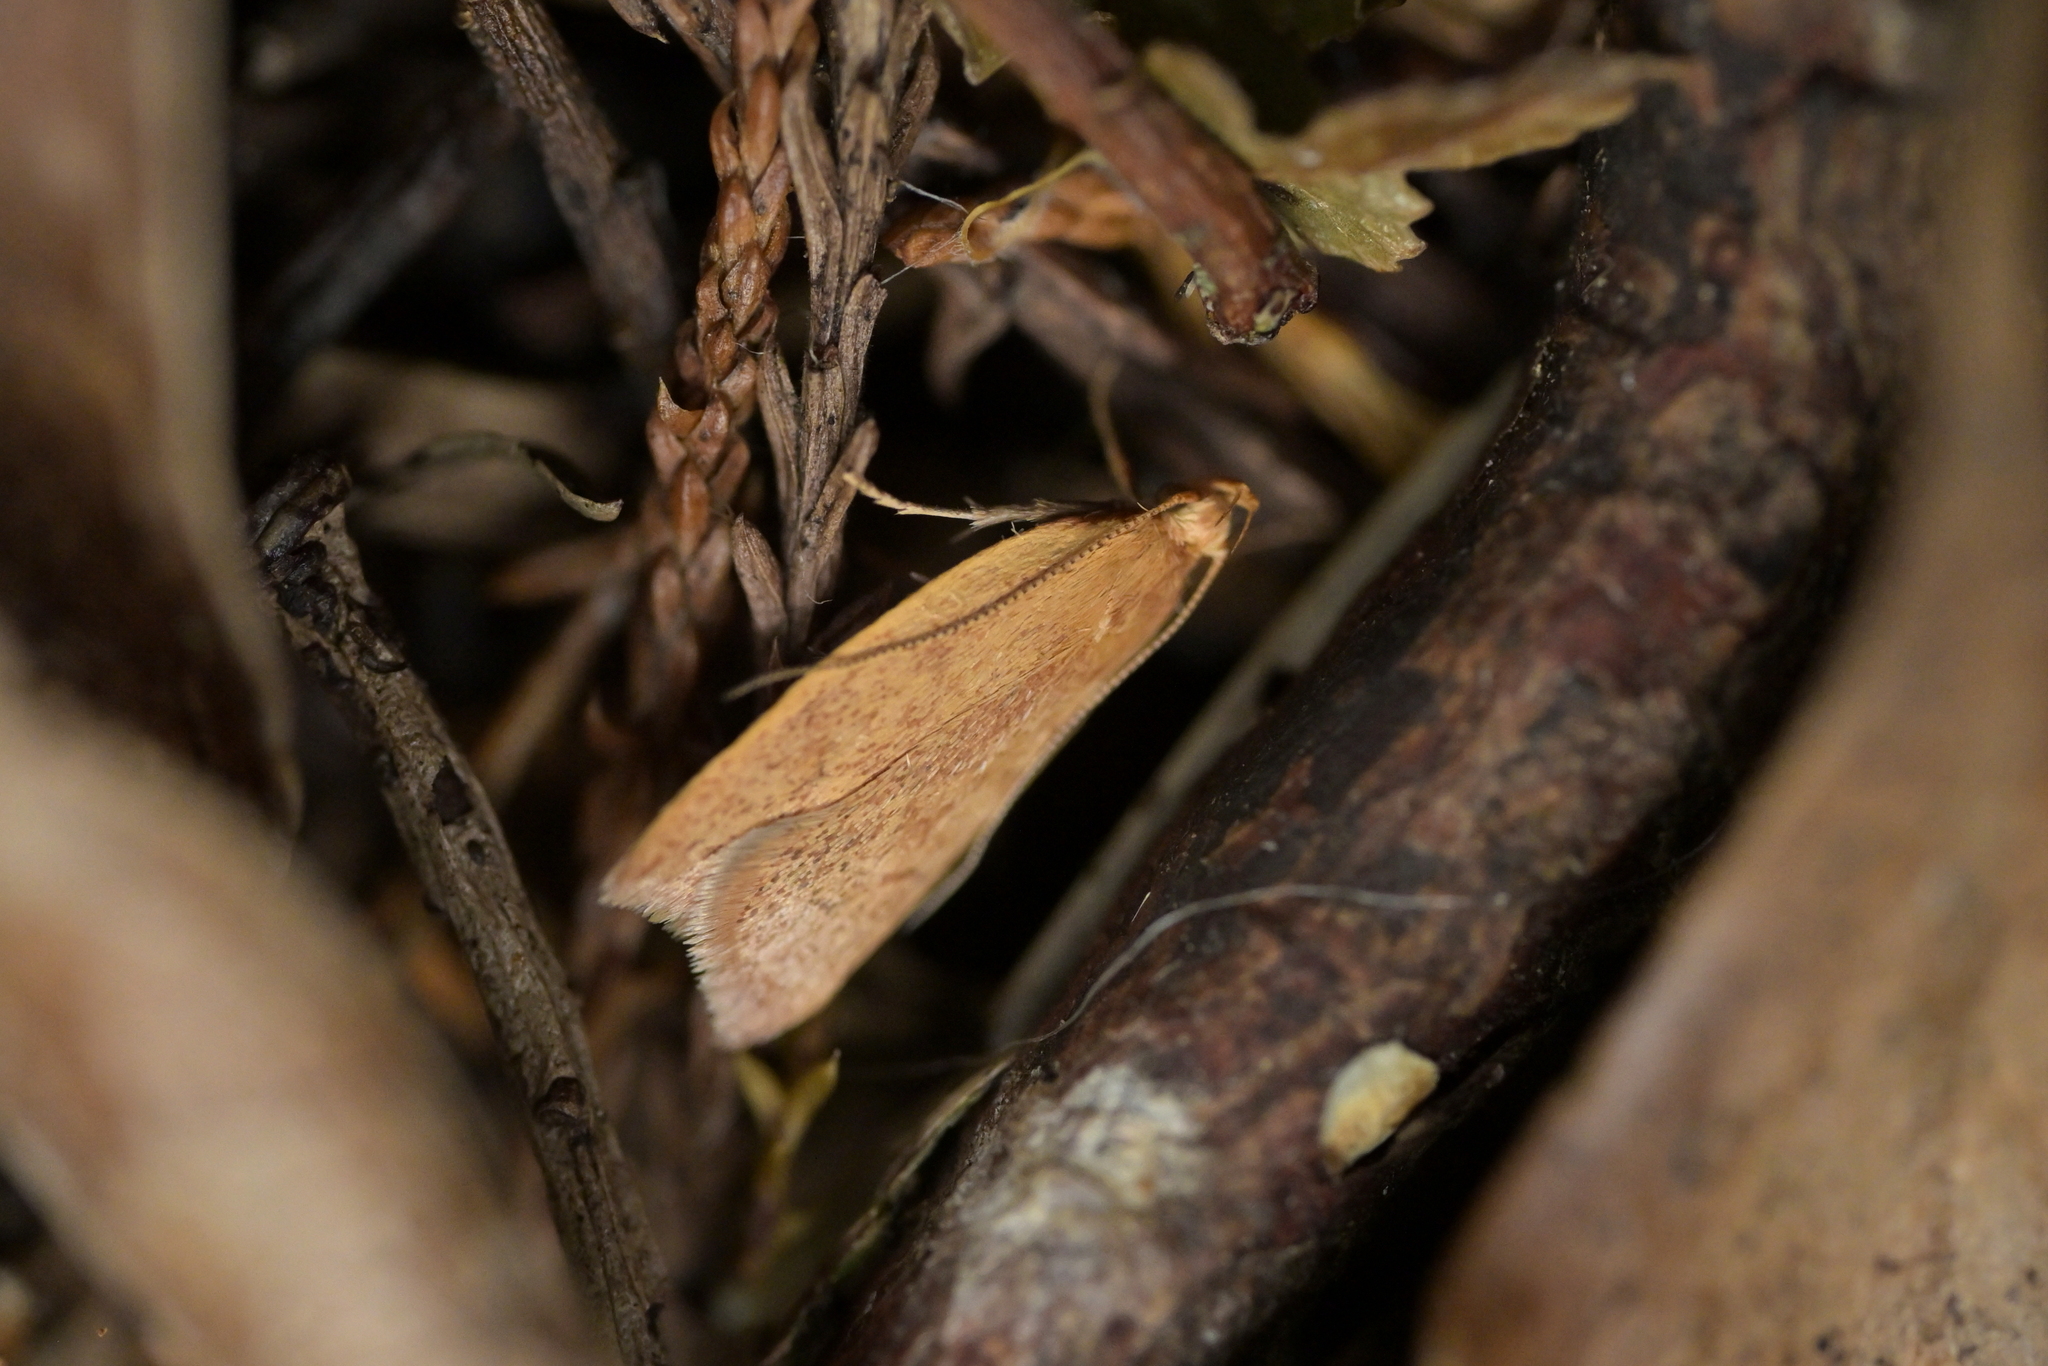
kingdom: Animalia
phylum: Arthropoda
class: Insecta
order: Lepidoptera
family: Oecophoridae
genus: Gymnobathra
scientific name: Gymnobathra sarcoxantha
